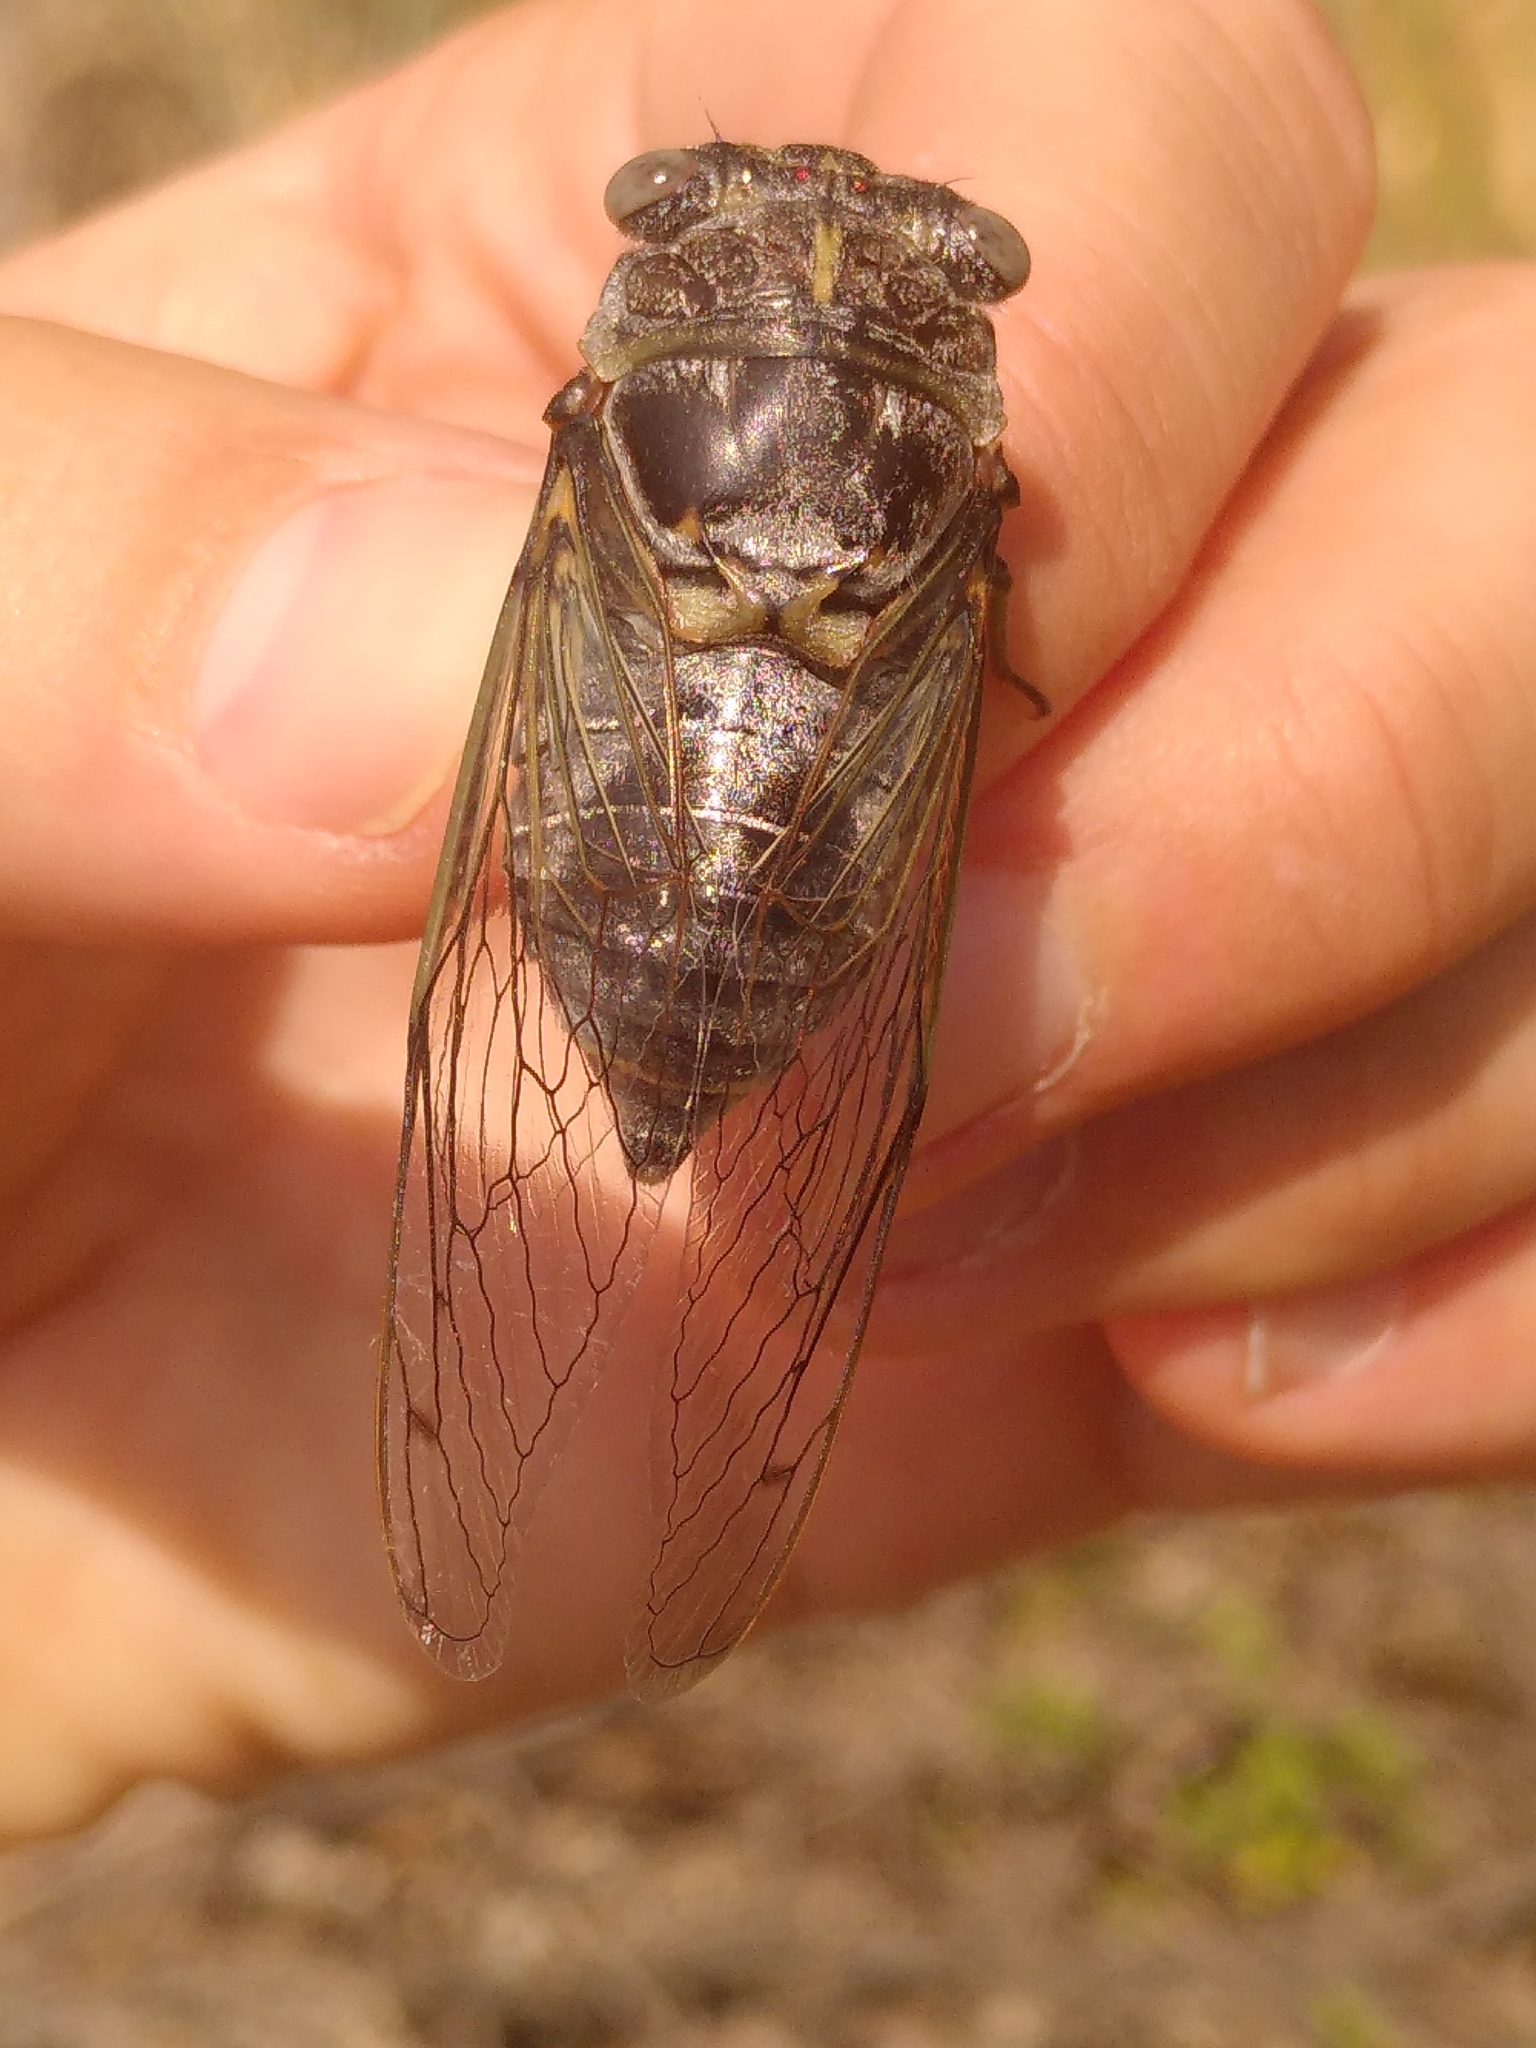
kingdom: Animalia
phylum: Arthropoda
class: Insecta
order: Hemiptera
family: Cicadidae
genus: Lyristes
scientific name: Lyristes plebejus
